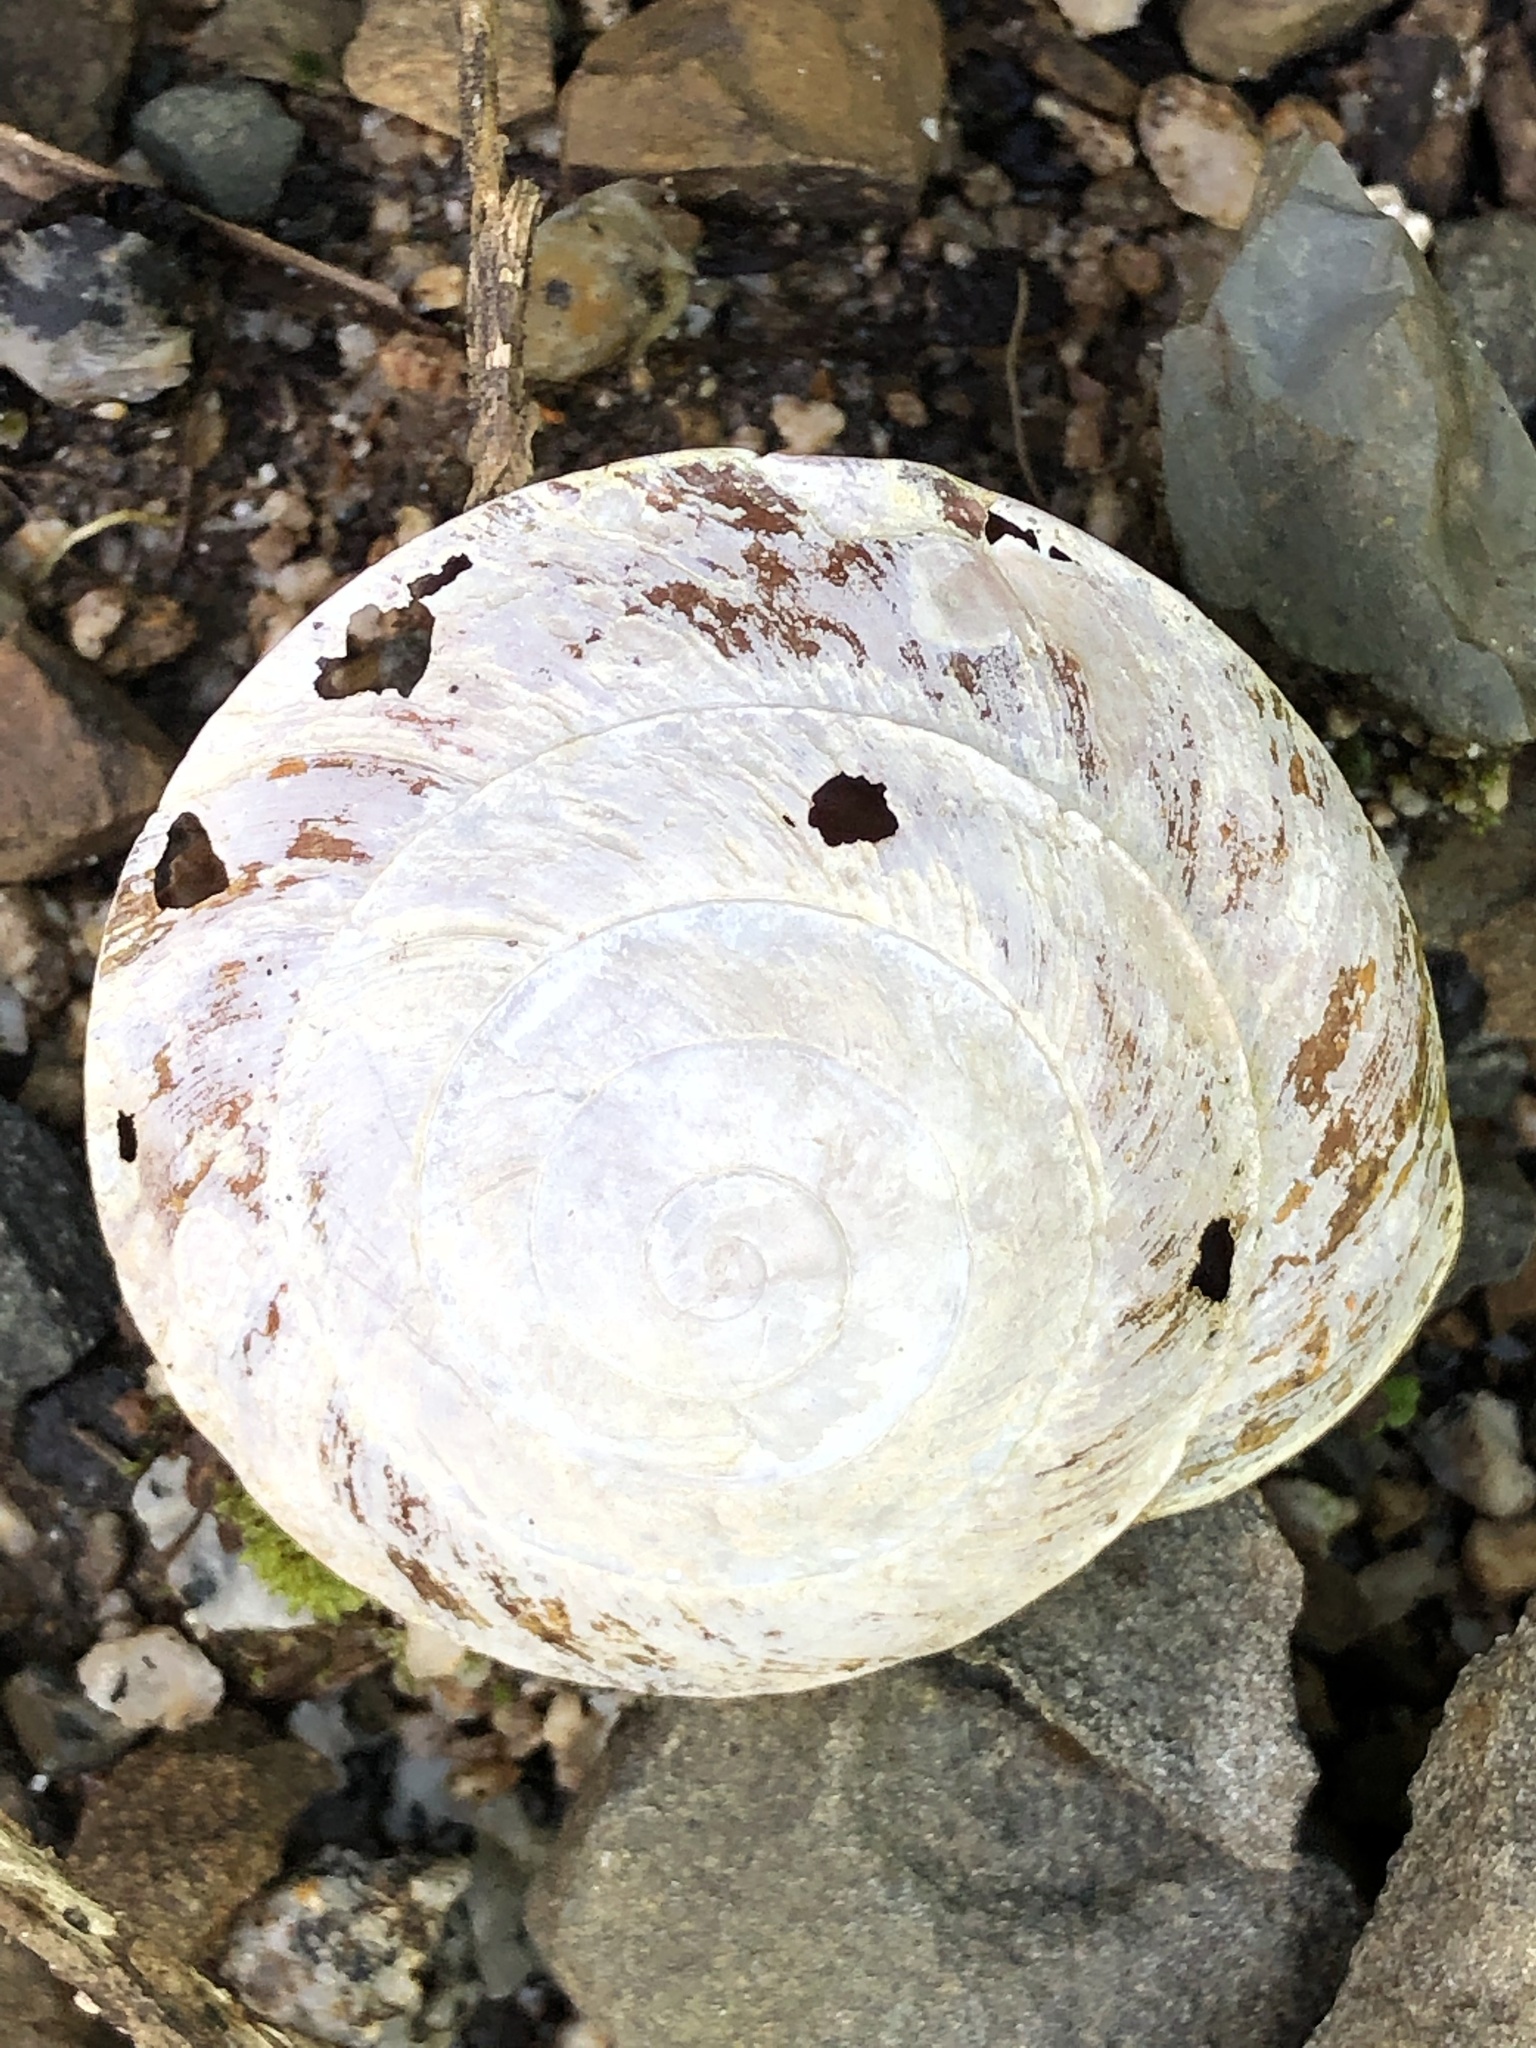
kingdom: Animalia
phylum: Mollusca
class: Gastropoda
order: Stylommatophora
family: Solaropsidae
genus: Caracolus
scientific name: Caracolus carocolla
